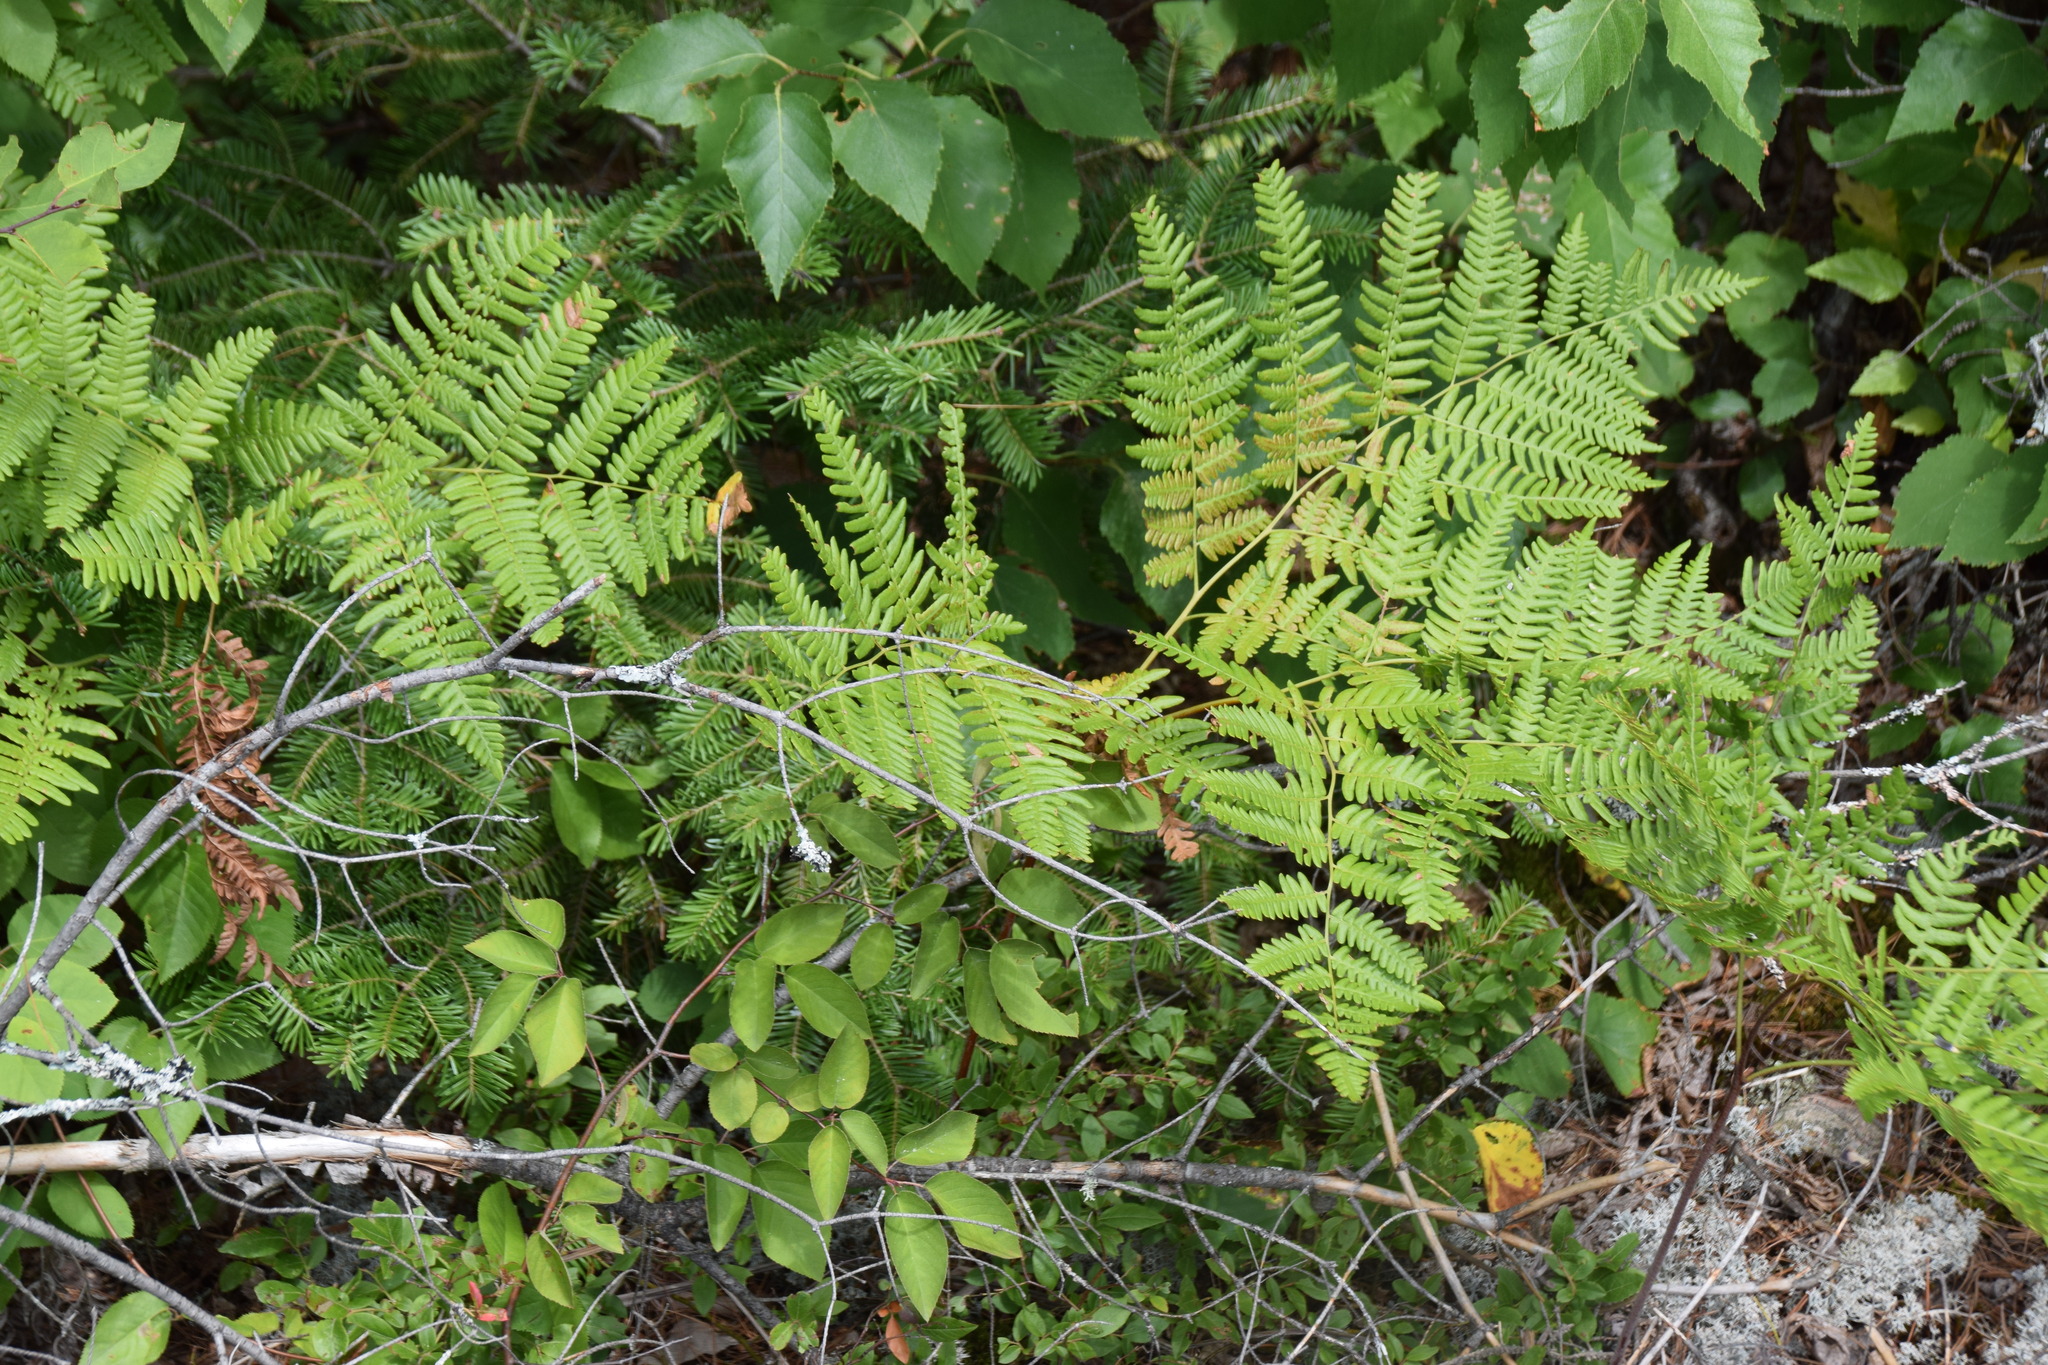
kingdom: Plantae
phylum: Tracheophyta
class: Polypodiopsida
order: Polypodiales
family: Dennstaedtiaceae
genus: Pteridium
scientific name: Pteridium aquilinum
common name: Bracken
